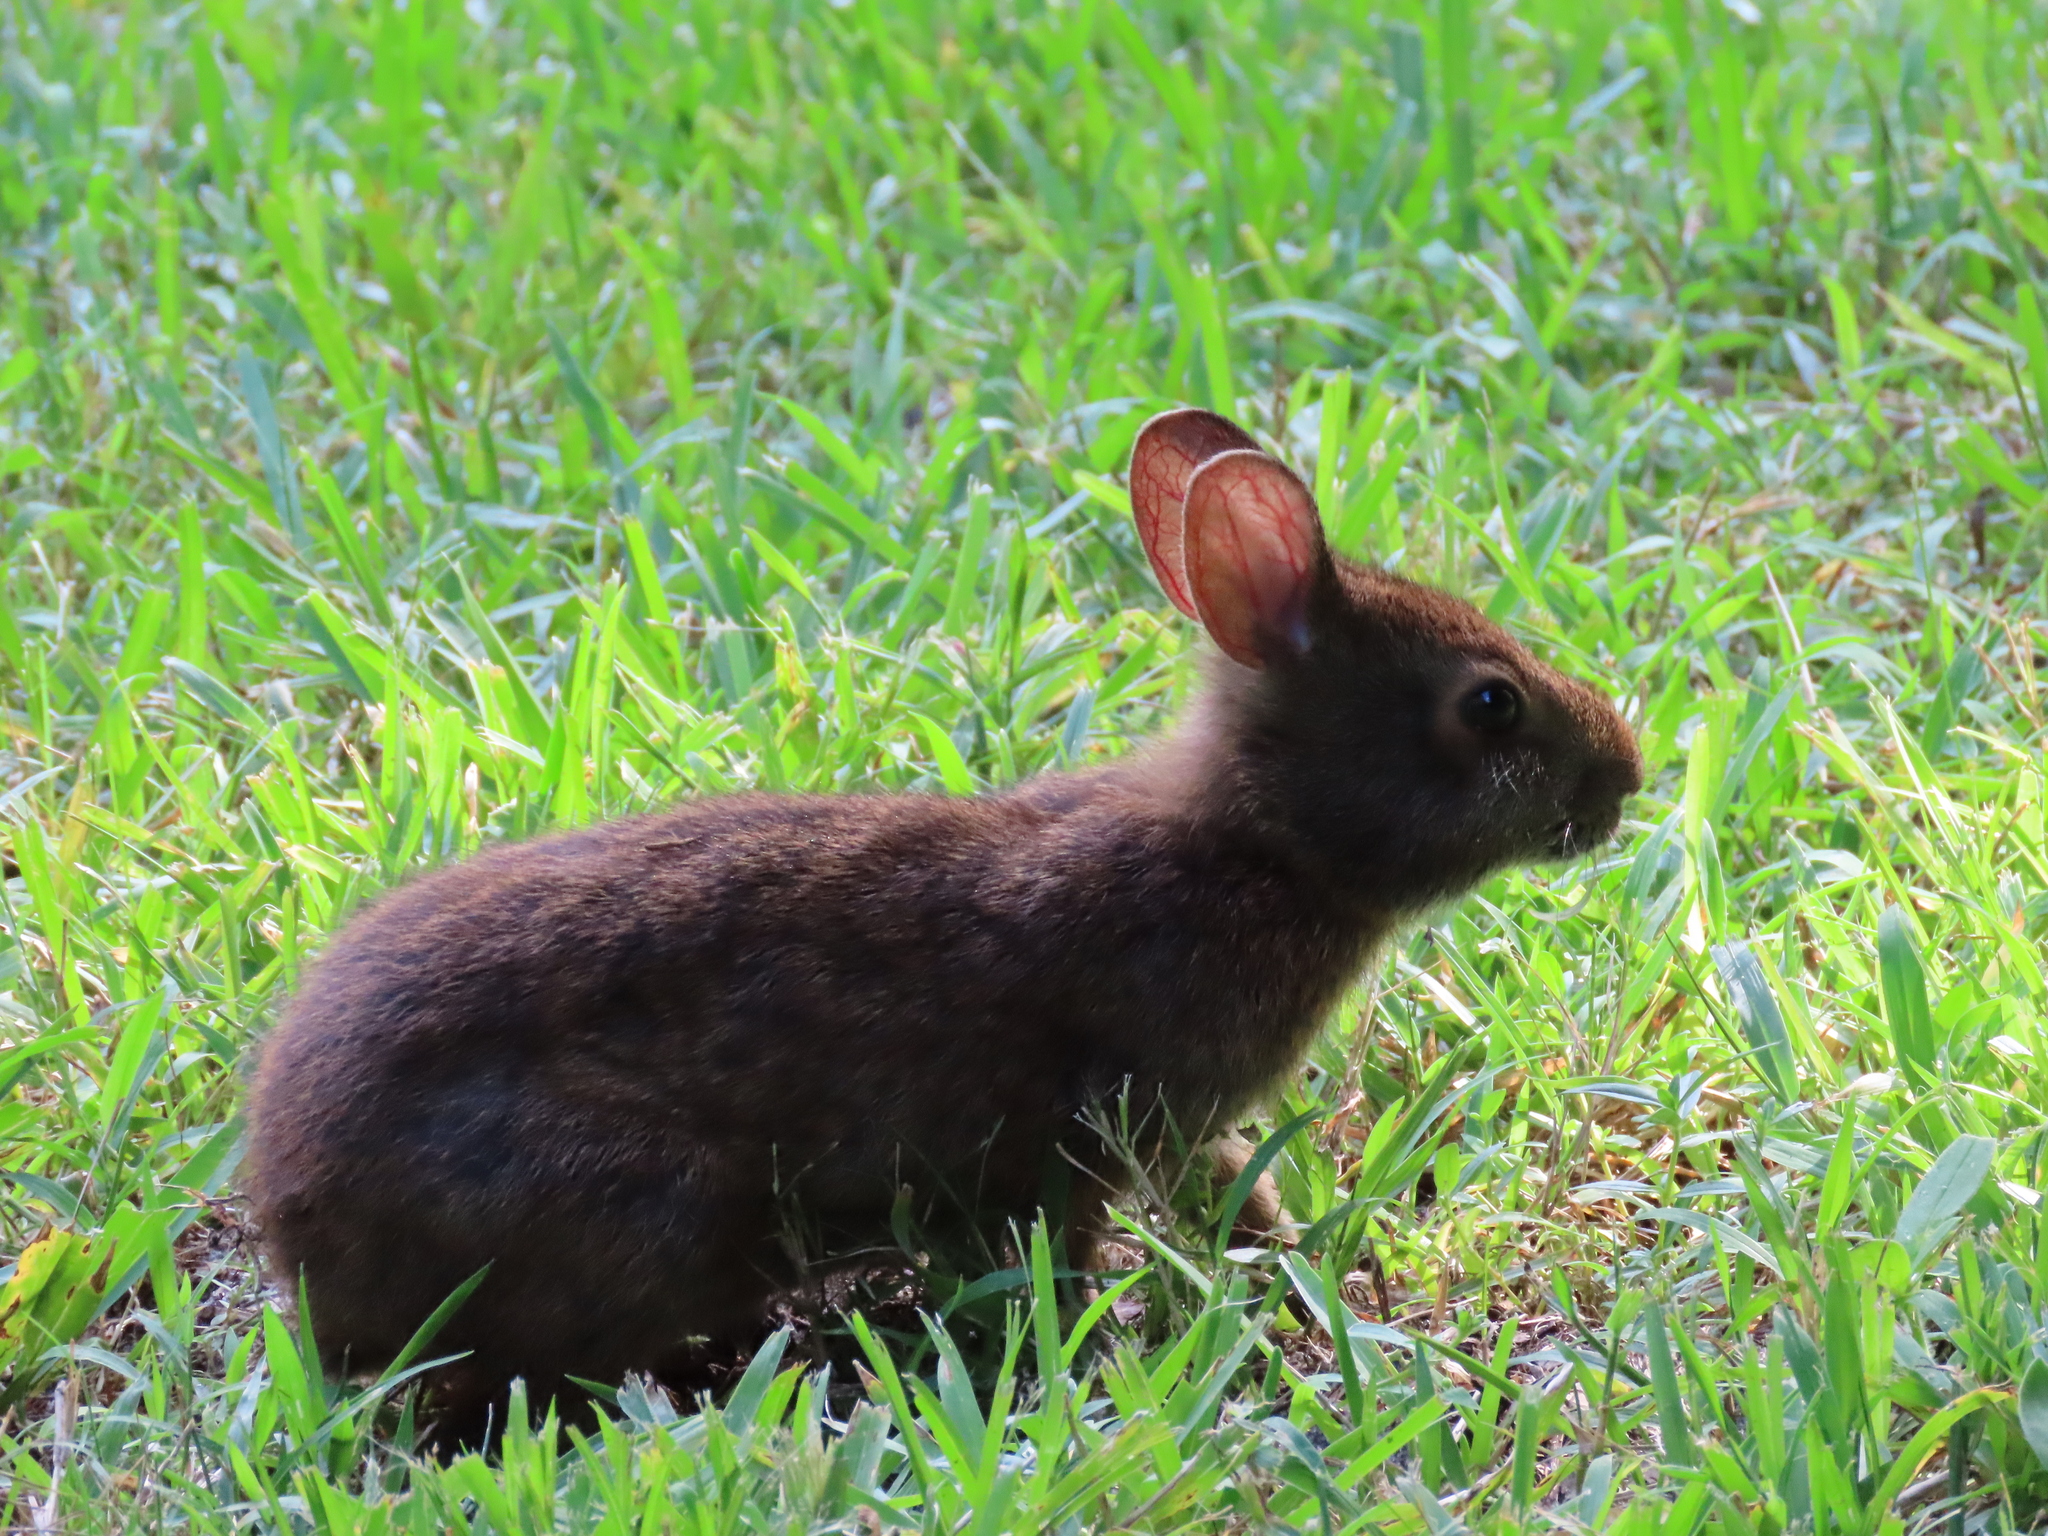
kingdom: Animalia
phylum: Chordata
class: Mammalia
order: Lagomorpha
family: Leporidae
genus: Sylvilagus
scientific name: Sylvilagus palustris
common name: Marsh rabbit
